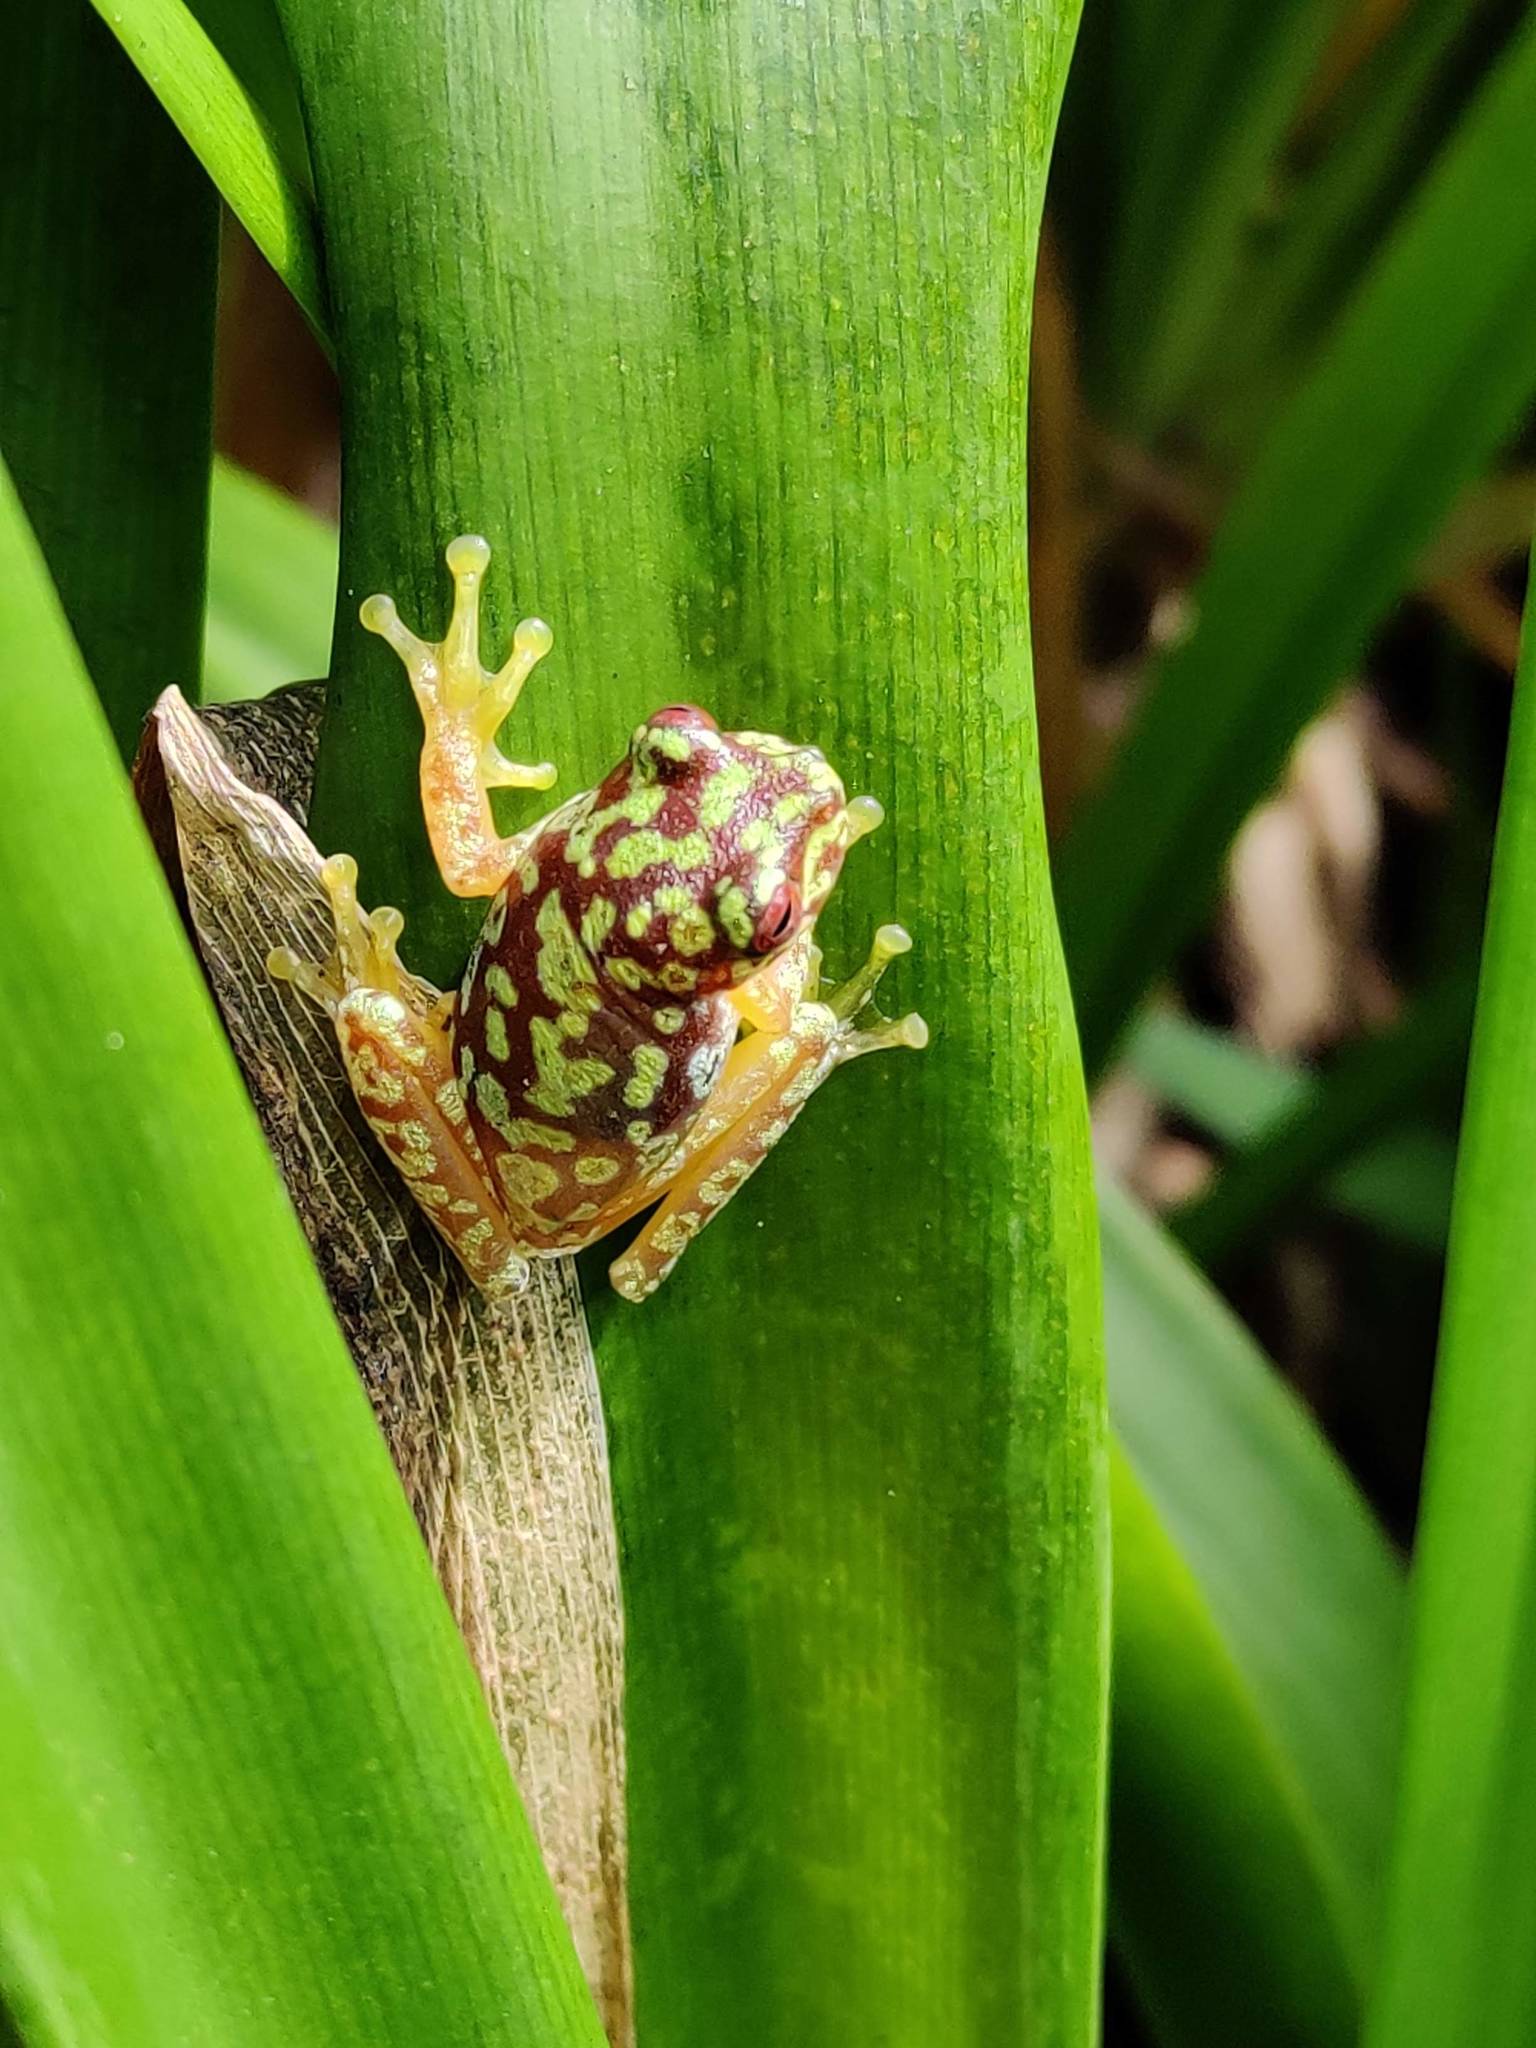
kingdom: Animalia
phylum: Chordata
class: Amphibia
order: Anura
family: Hylidae
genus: Duellmanohyla
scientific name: Duellmanohyla soralia
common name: Copan brook frog
